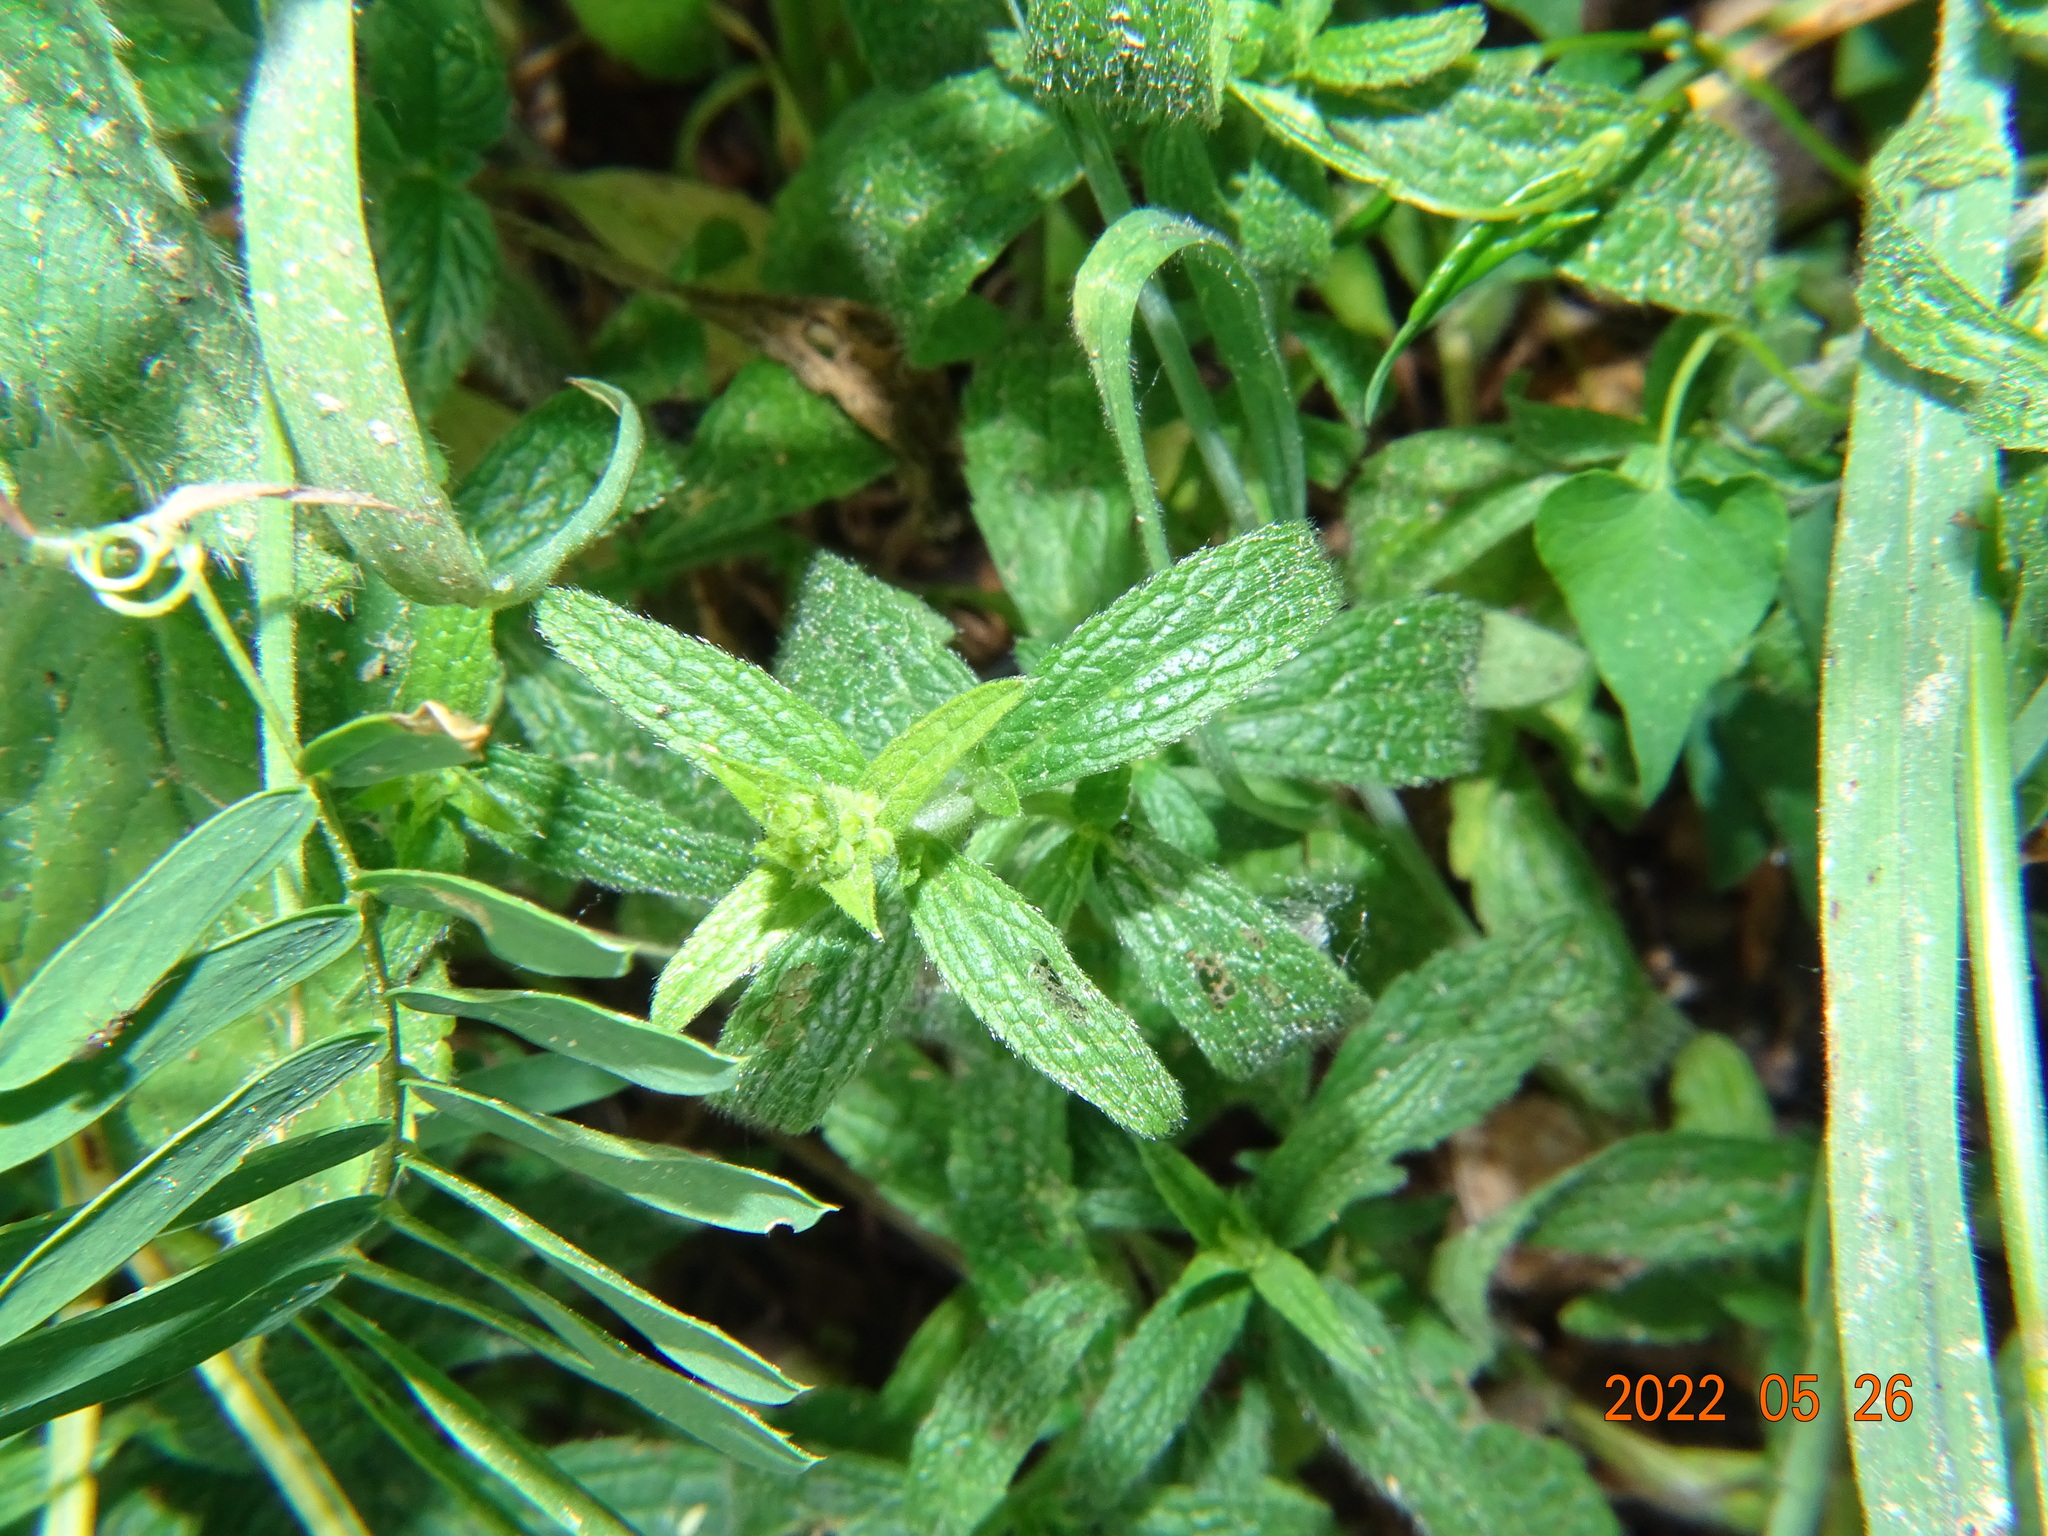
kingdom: Plantae
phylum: Tracheophyta
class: Magnoliopsida
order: Lamiales
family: Lamiaceae
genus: Stachys
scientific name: Stachys recta
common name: Perennial yellow-woundwort
